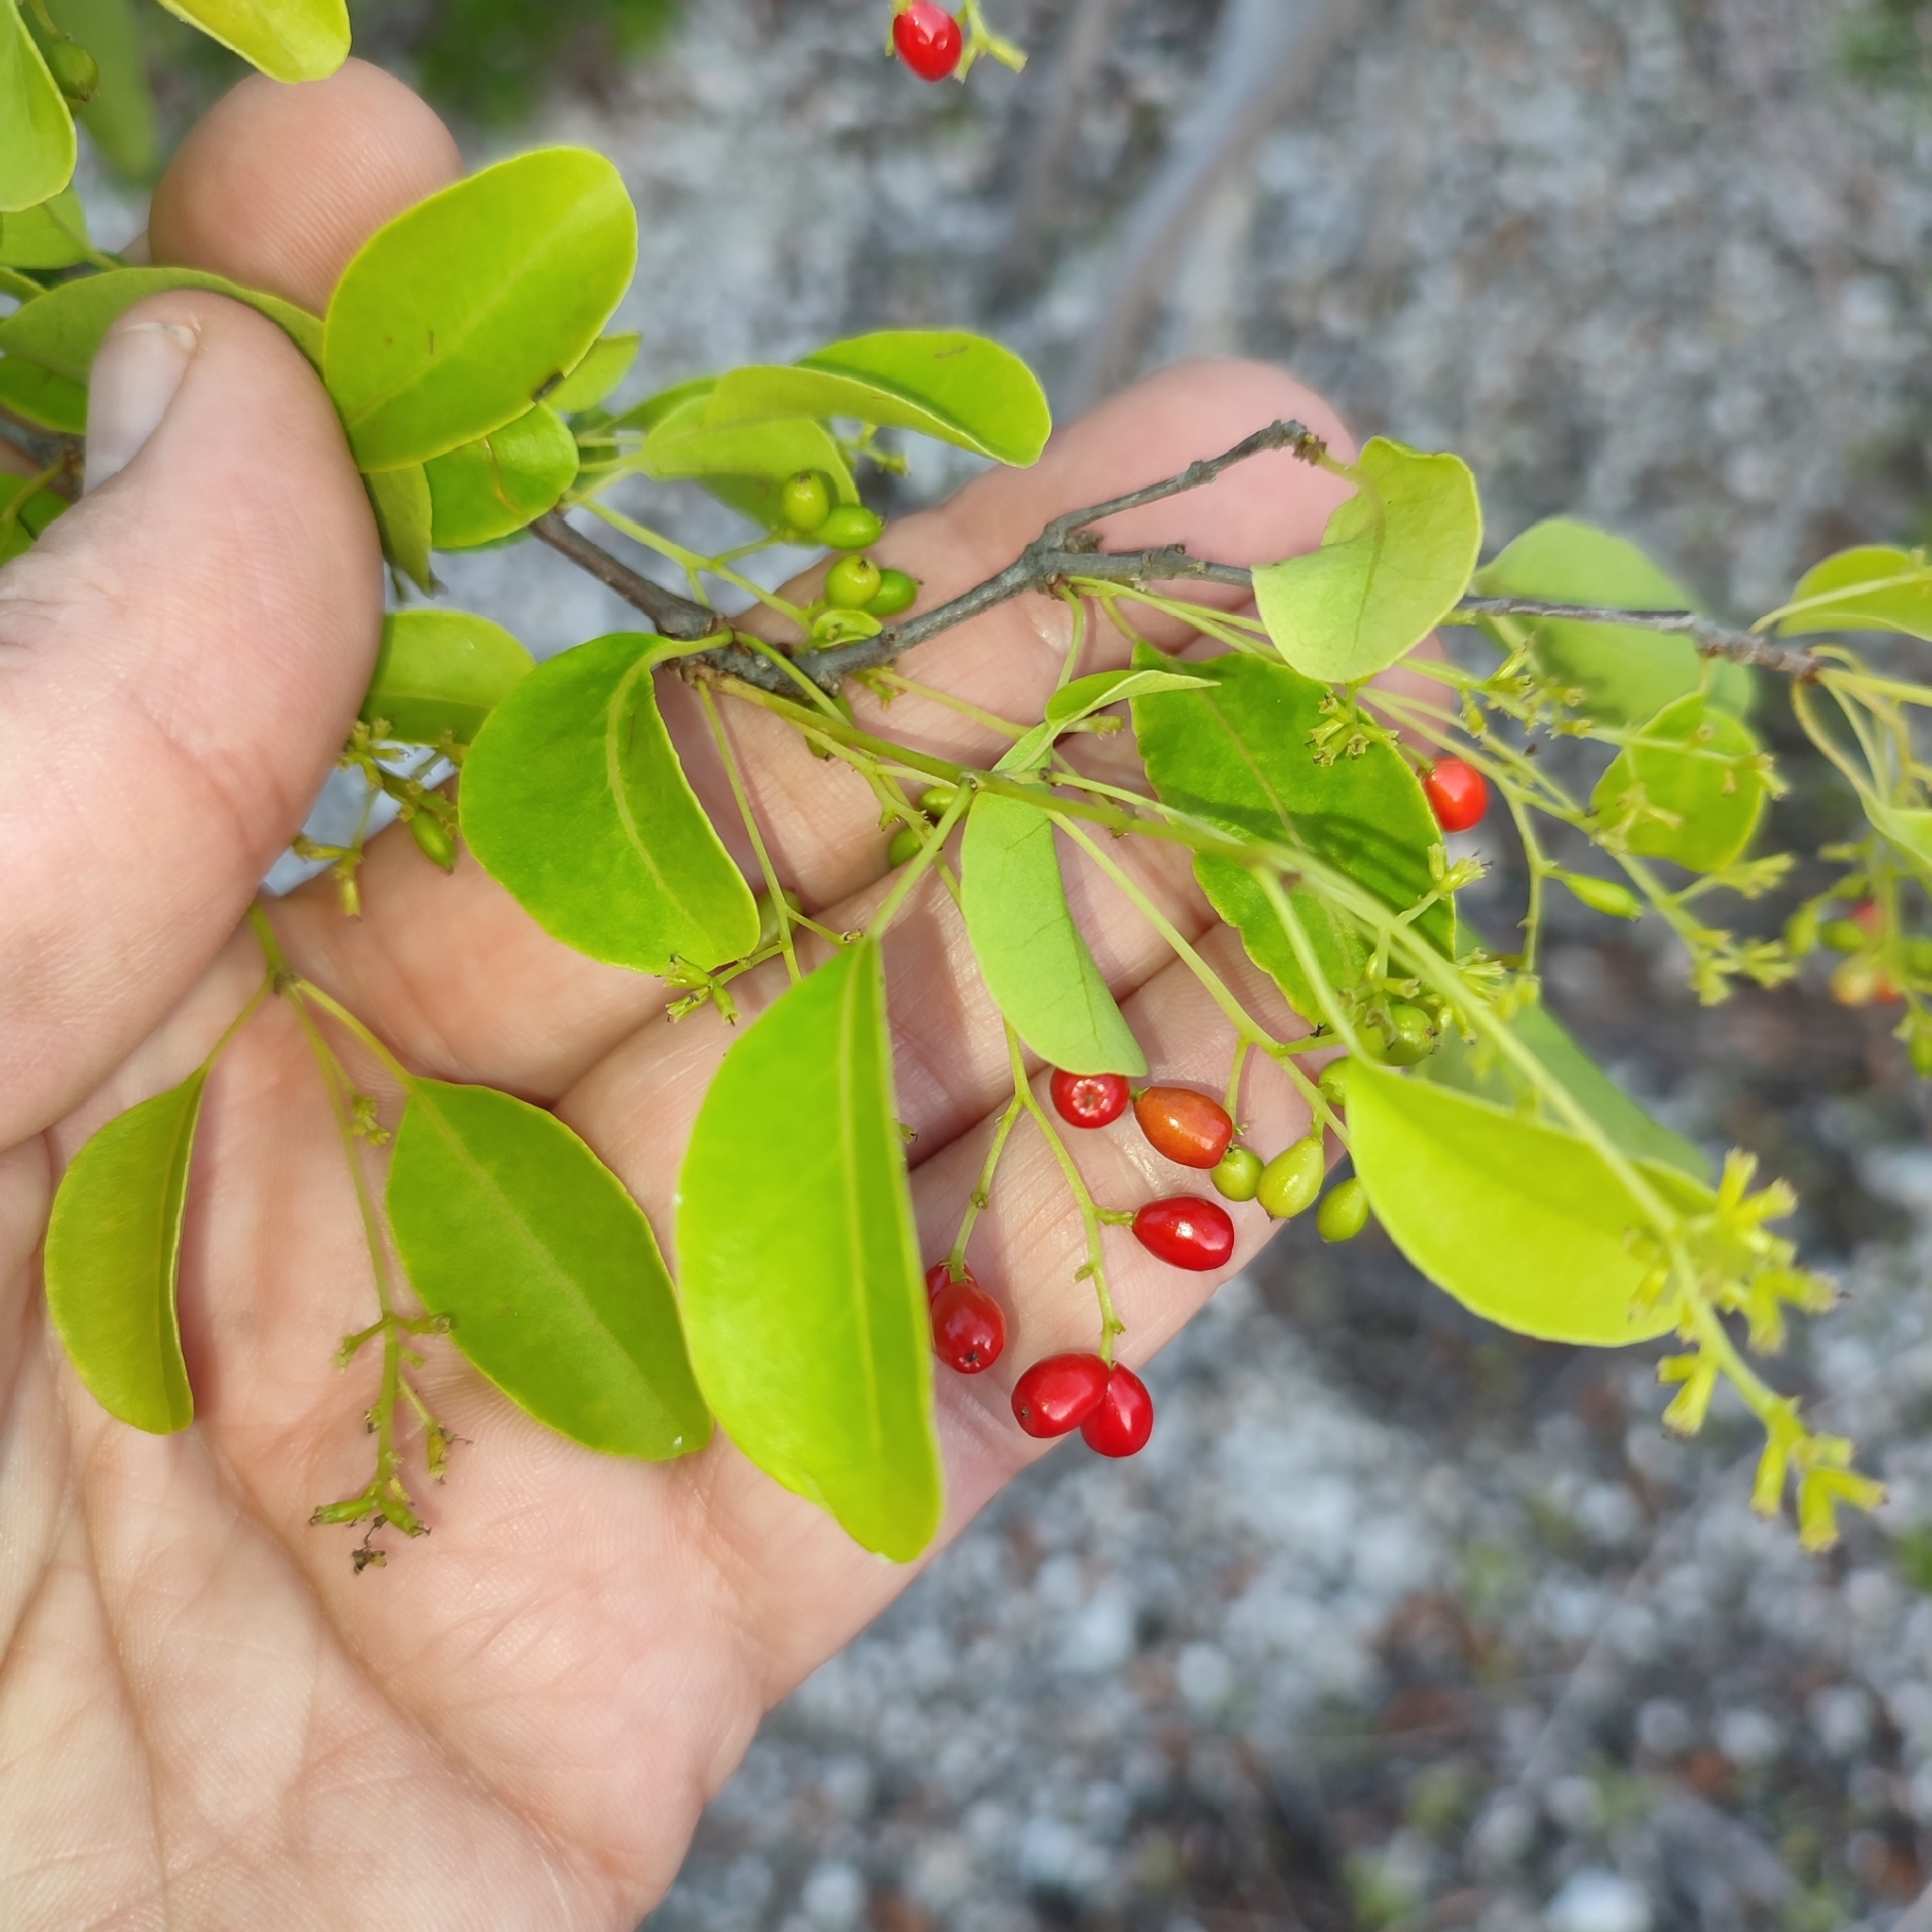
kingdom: Plantae
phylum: Tracheophyta
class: Magnoliopsida
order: Caryophyllales
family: Nyctaginaceae
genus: Guapira
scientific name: Guapira discolor
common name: Beeftree
